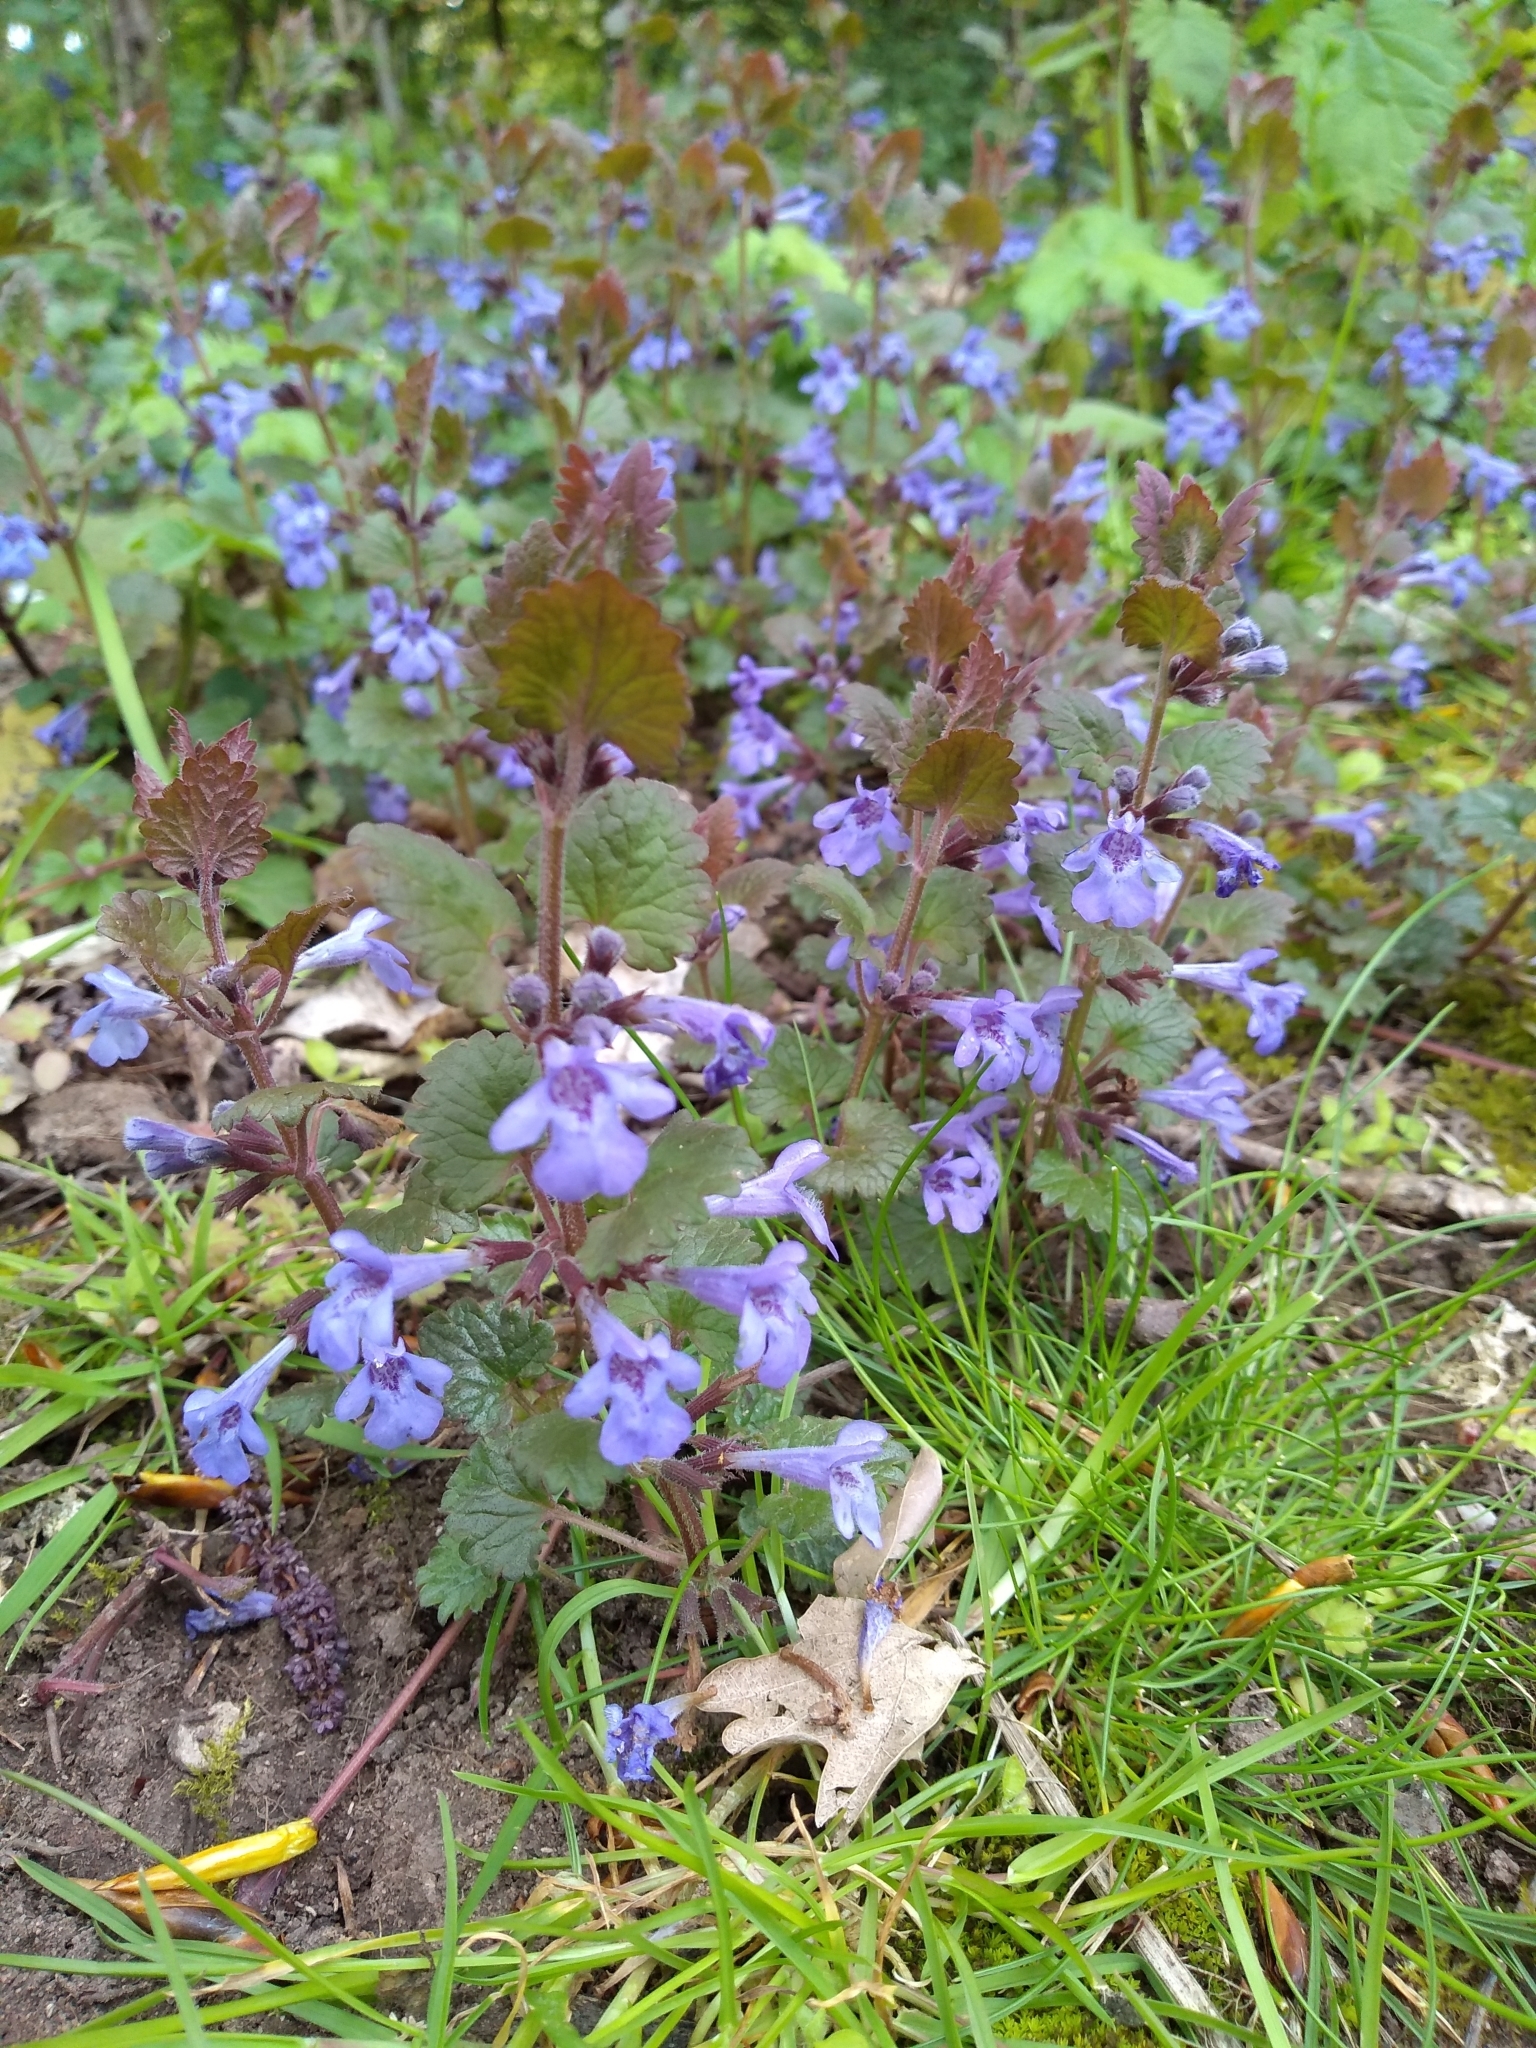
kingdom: Plantae
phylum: Tracheophyta
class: Magnoliopsida
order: Lamiales
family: Lamiaceae
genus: Glechoma
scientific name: Glechoma hederacea
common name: Ground ivy
